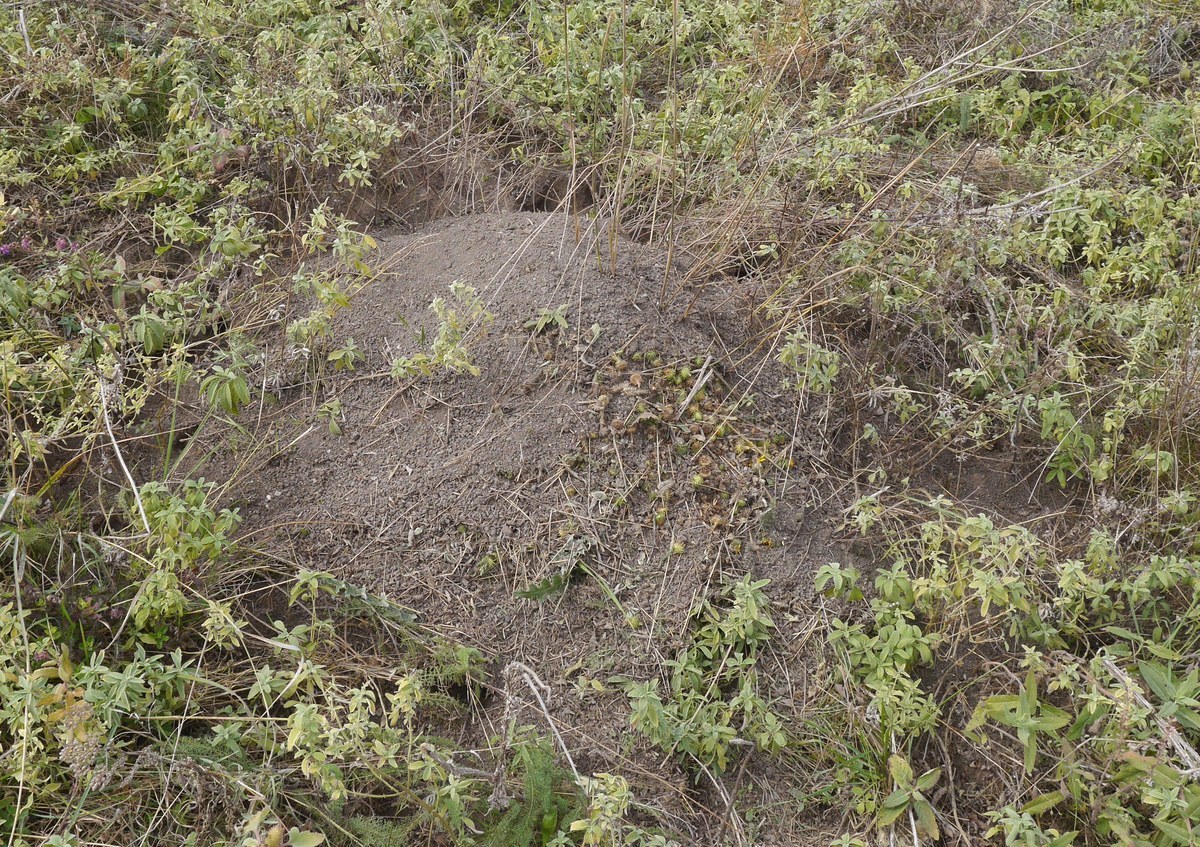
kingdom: Animalia
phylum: Chordata
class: Mammalia
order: Rodentia
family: Muridae
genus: Mus
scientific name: Mus spicilegus
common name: Mound-building mouse
